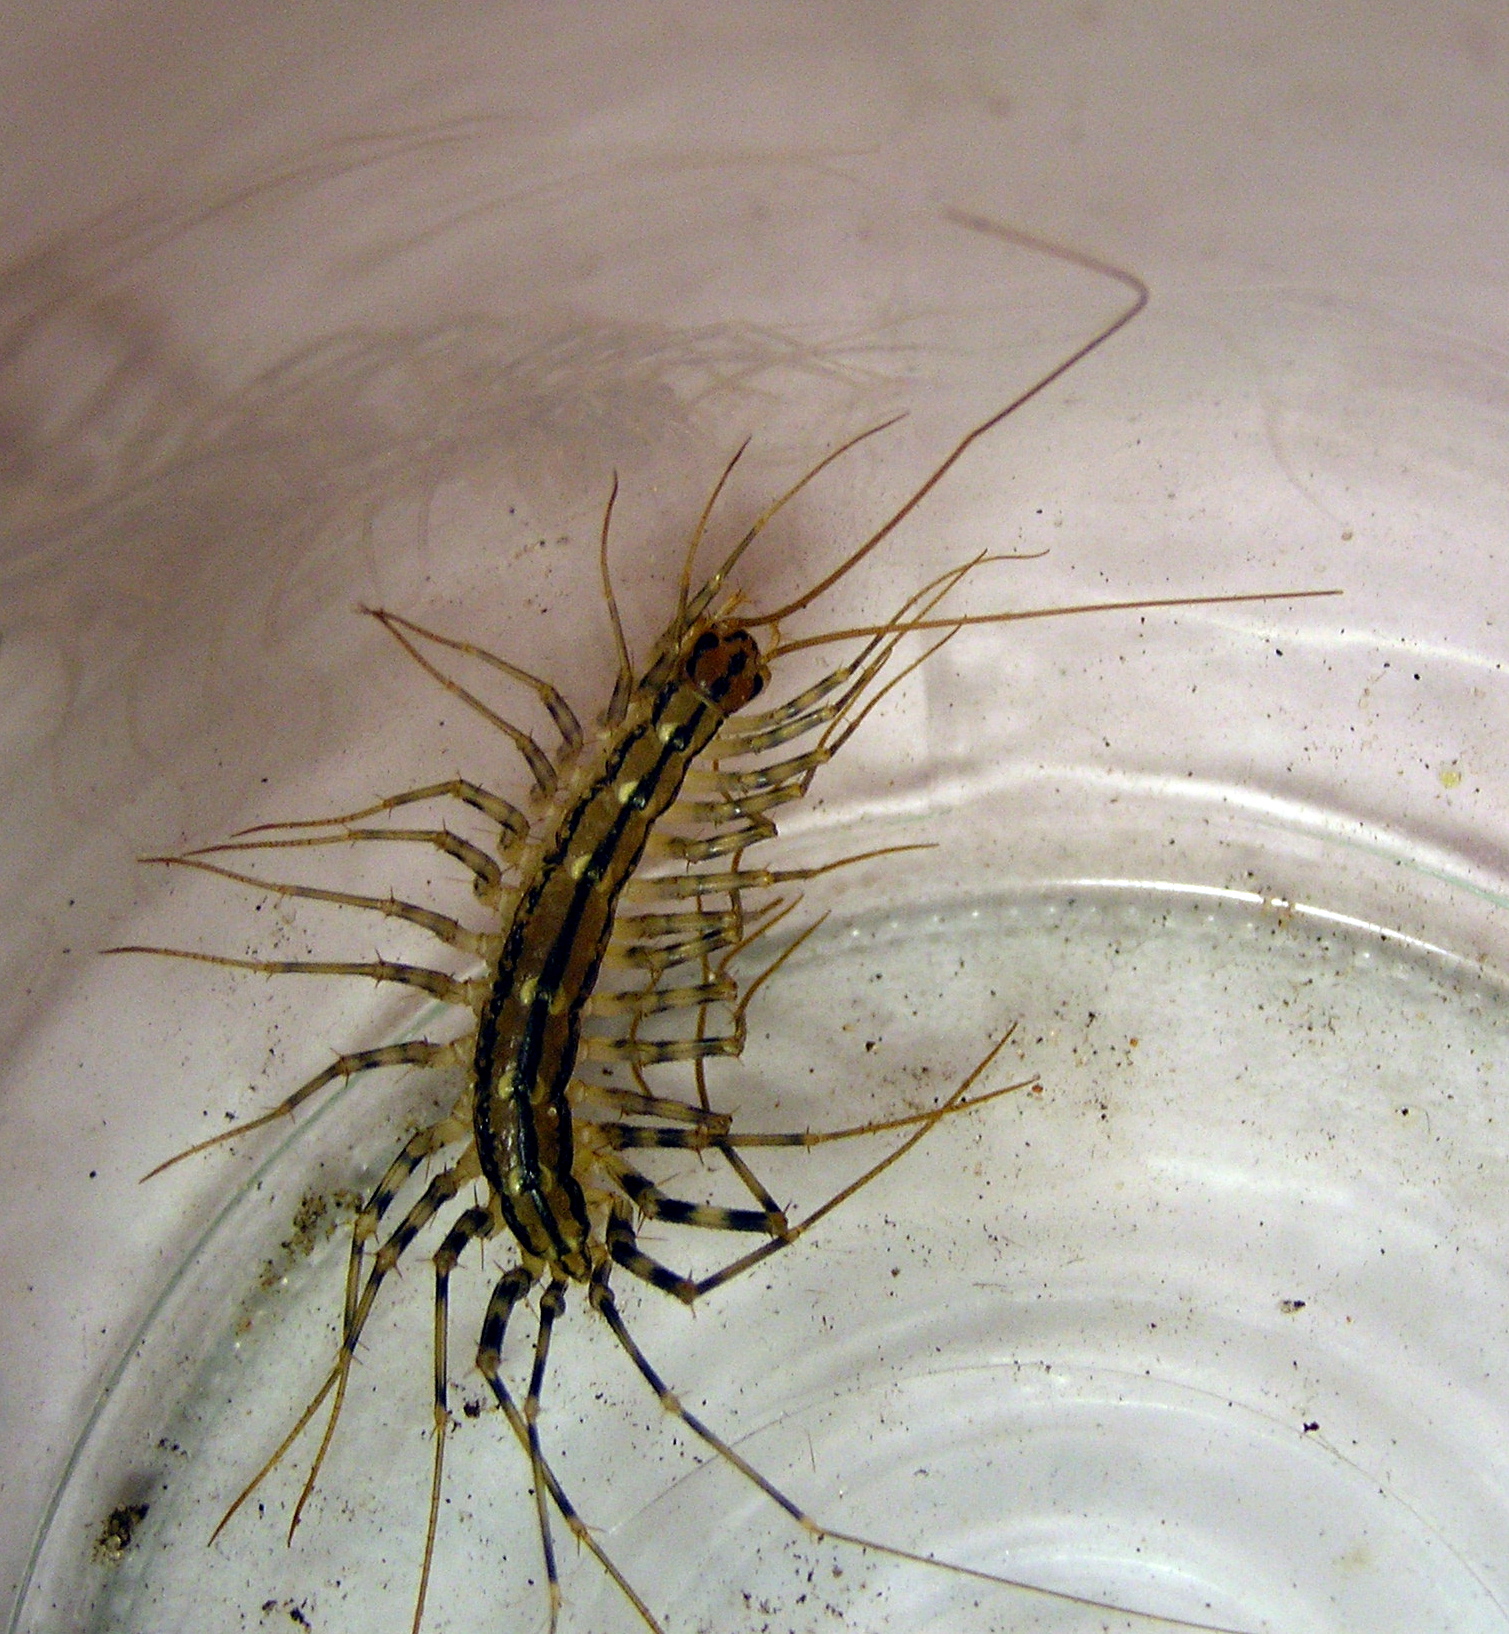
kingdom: Animalia
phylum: Arthropoda
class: Chilopoda
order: Scutigeromorpha
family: Scutigeridae
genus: Scutigera
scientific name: Scutigera coleoptrata
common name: House centipede
